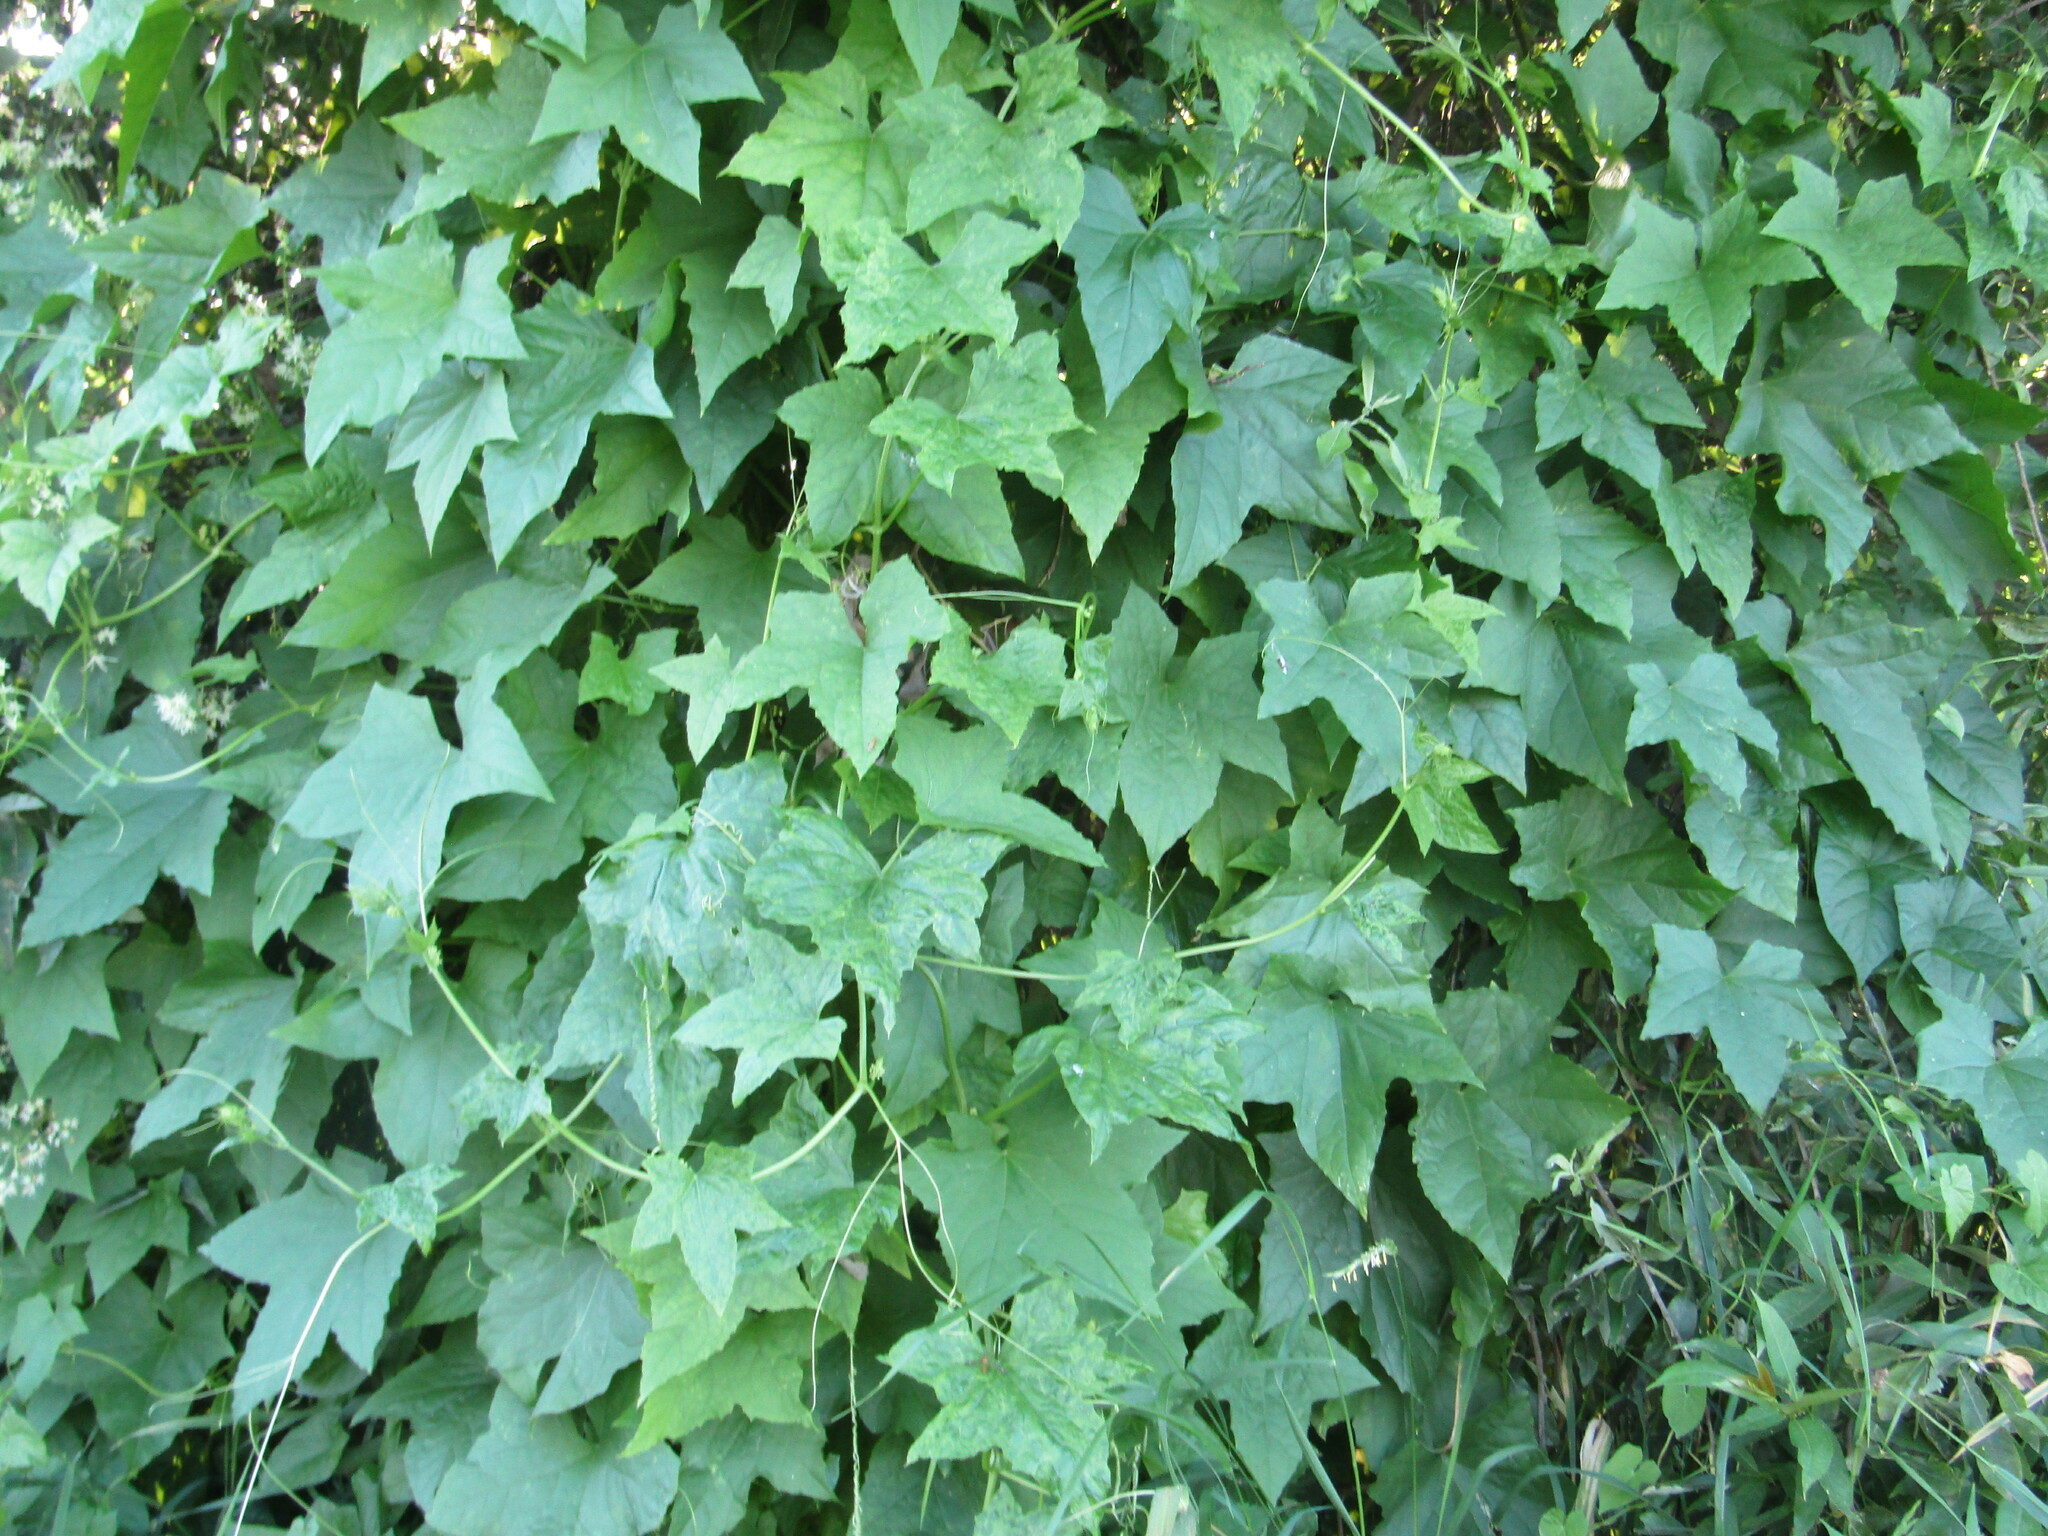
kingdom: Plantae
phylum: Tracheophyta
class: Magnoliopsida
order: Cucurbitales
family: Cucurbitaceae
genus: Echinocystis
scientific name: Echinocystis lobata
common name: Wild cucumber
